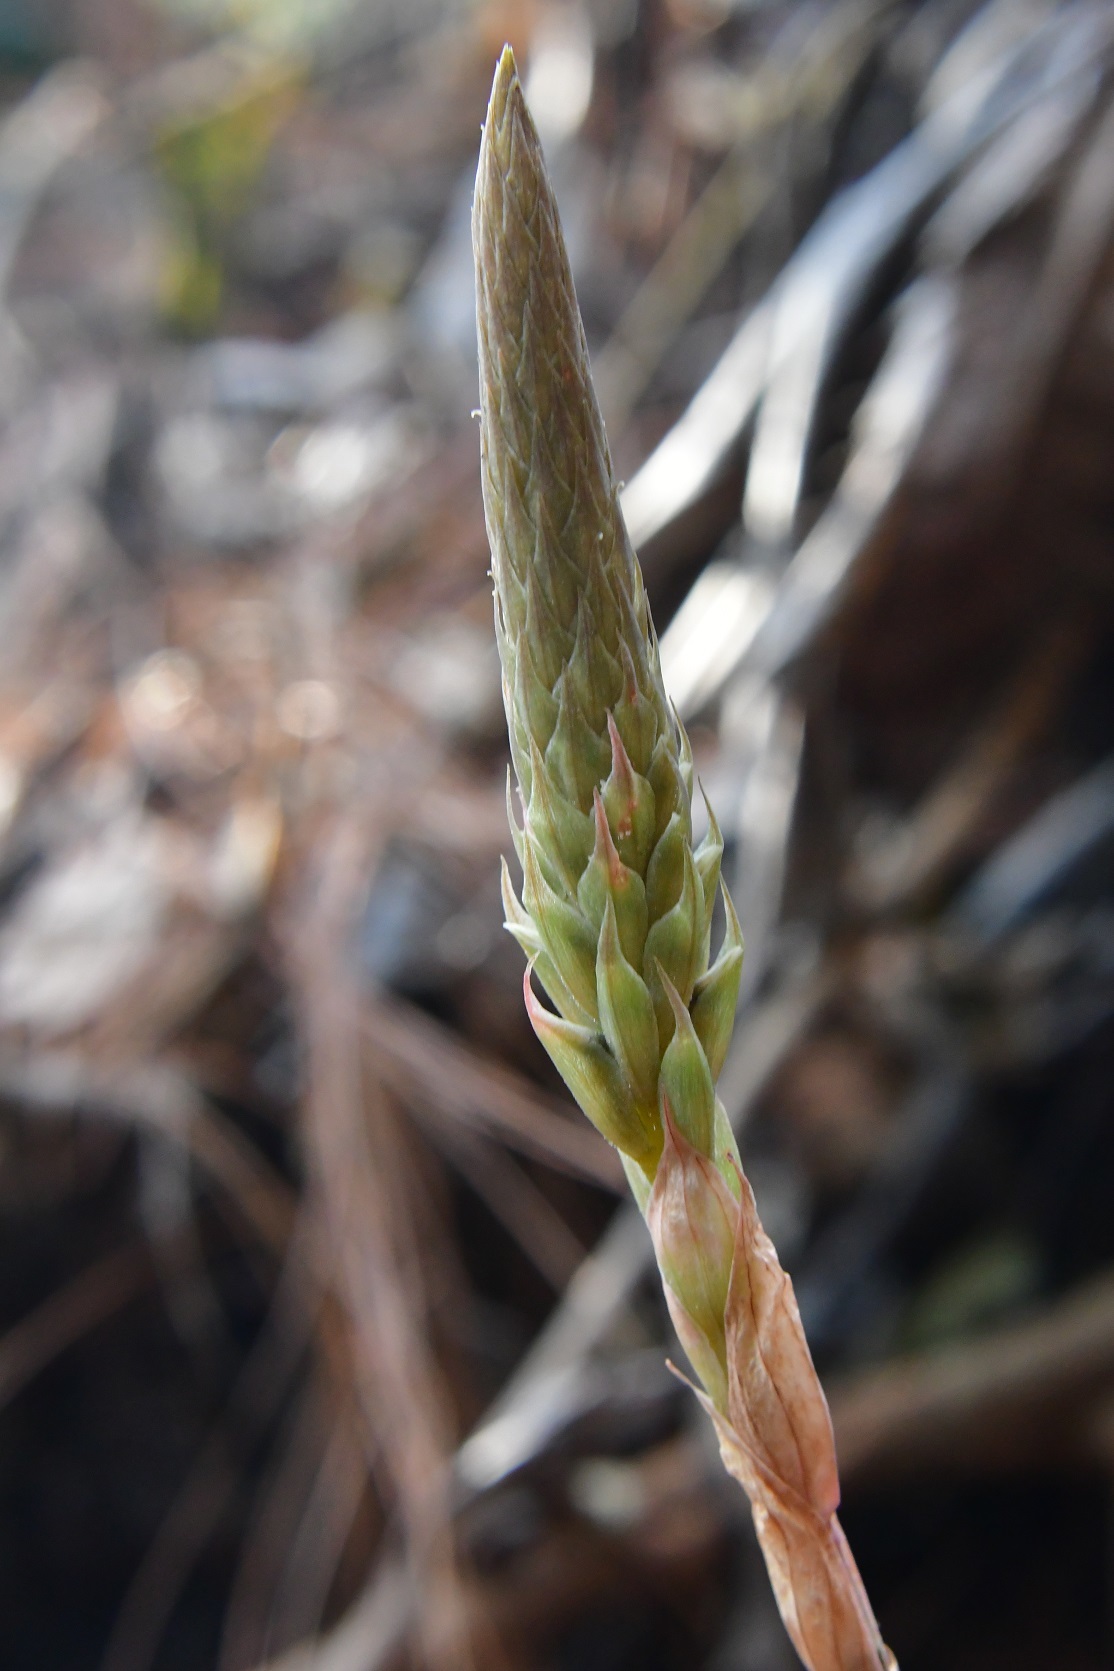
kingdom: Plantae
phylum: Tracheophyta
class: Liliopsida
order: Asparagales
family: Orchidaceae
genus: Aulosepalum
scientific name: Aulosepalum pyramidale
